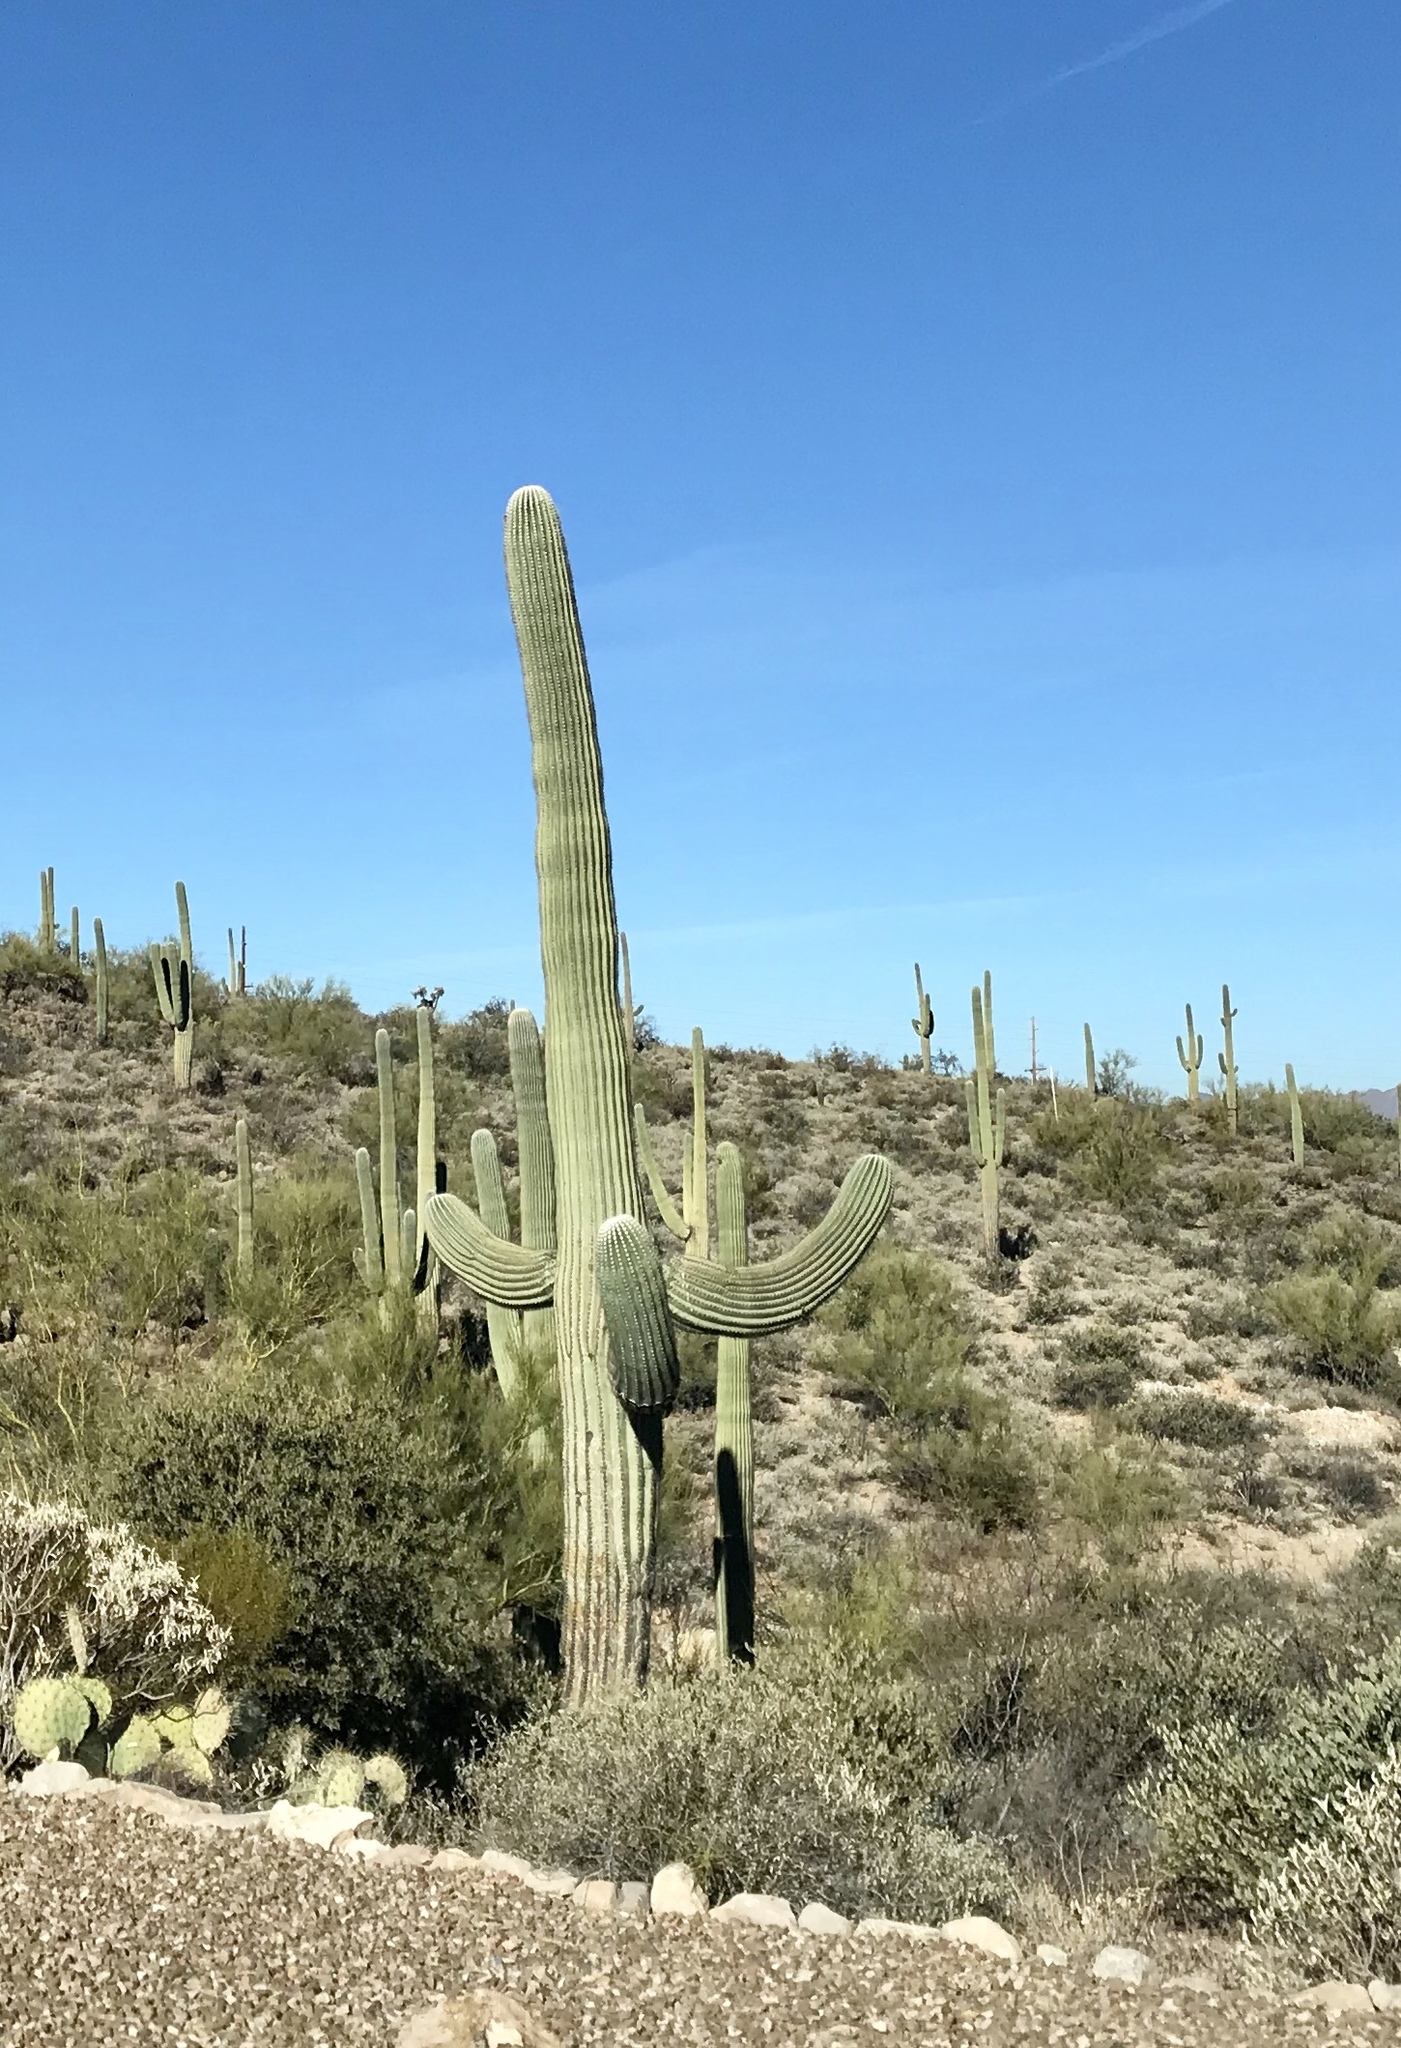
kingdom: Plantae
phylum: Tracheophyta
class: Magnoliopsida
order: Caryophyllales
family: Cactaceae
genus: Carnegiea
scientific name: Carnegiea gigantea
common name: Saguaro
